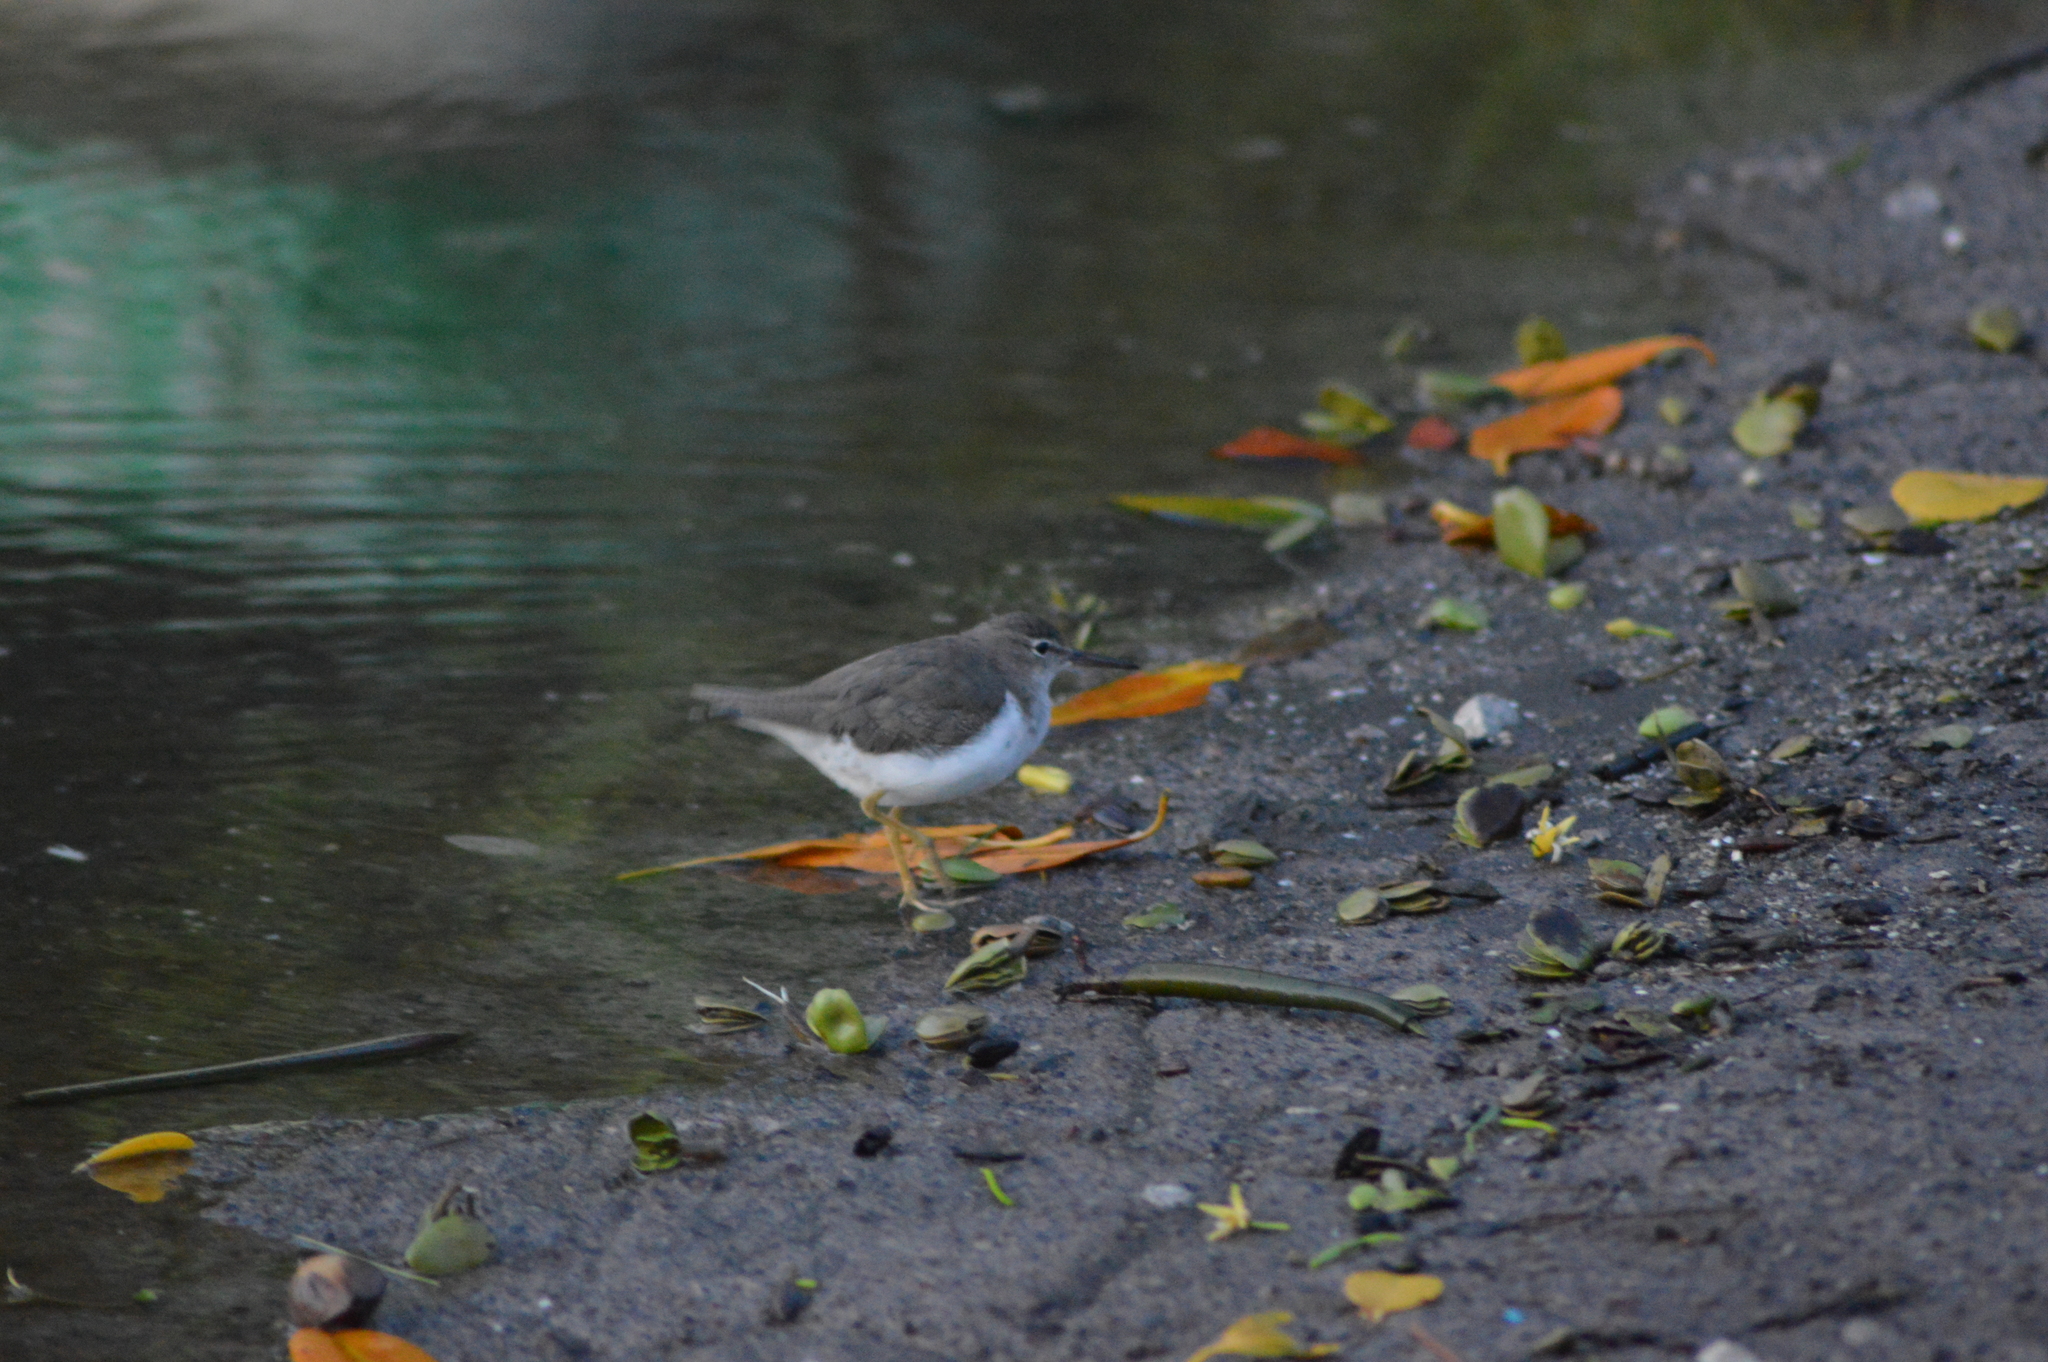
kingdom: Animalia
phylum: Chordata
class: Aves
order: Charadriiformes
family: Scolopacidae
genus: Actitis
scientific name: Actitis macularius
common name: Spotted sandpiper
